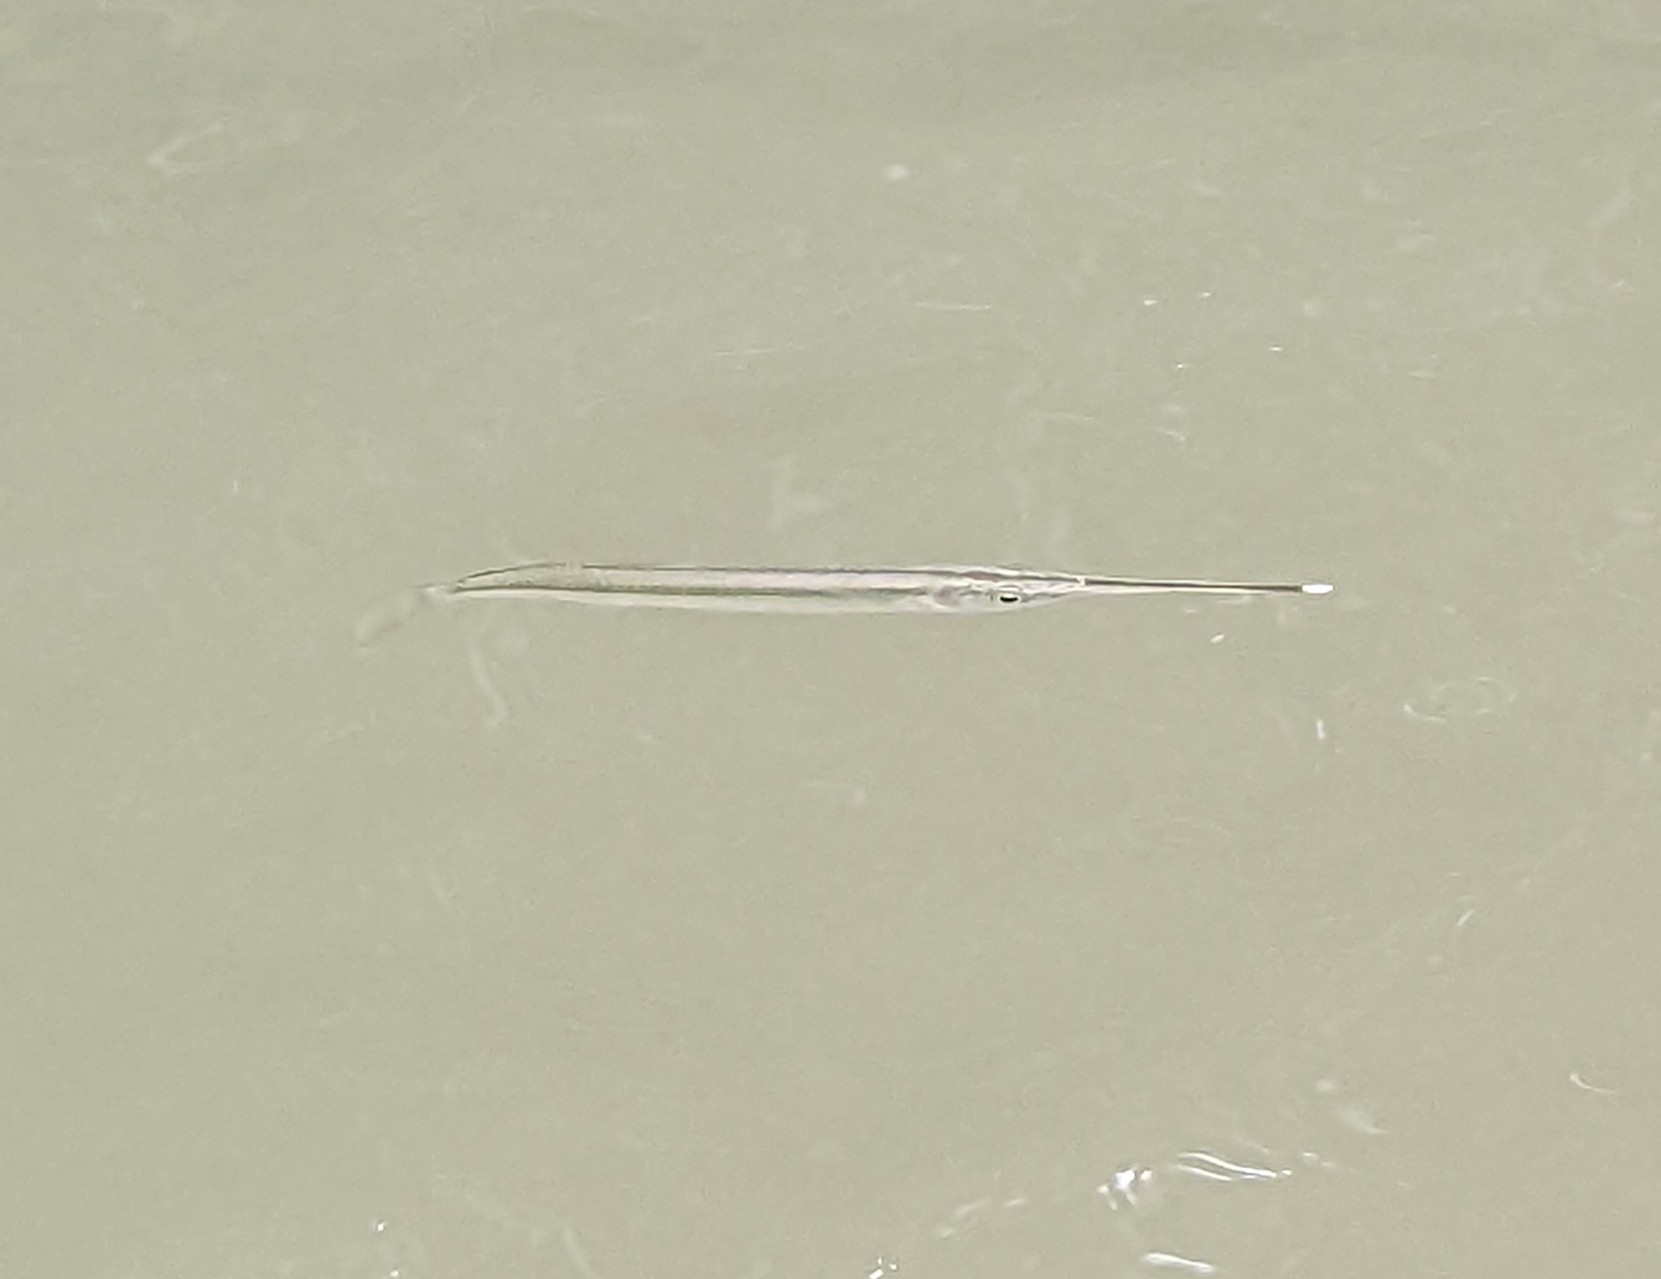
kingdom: Animalia
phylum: Chordata
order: Beloniformes
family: Zenarchopteridae
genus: Zenarchopterus
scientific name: Zenarchopterus buffonis
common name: Buffon's river-garfish
